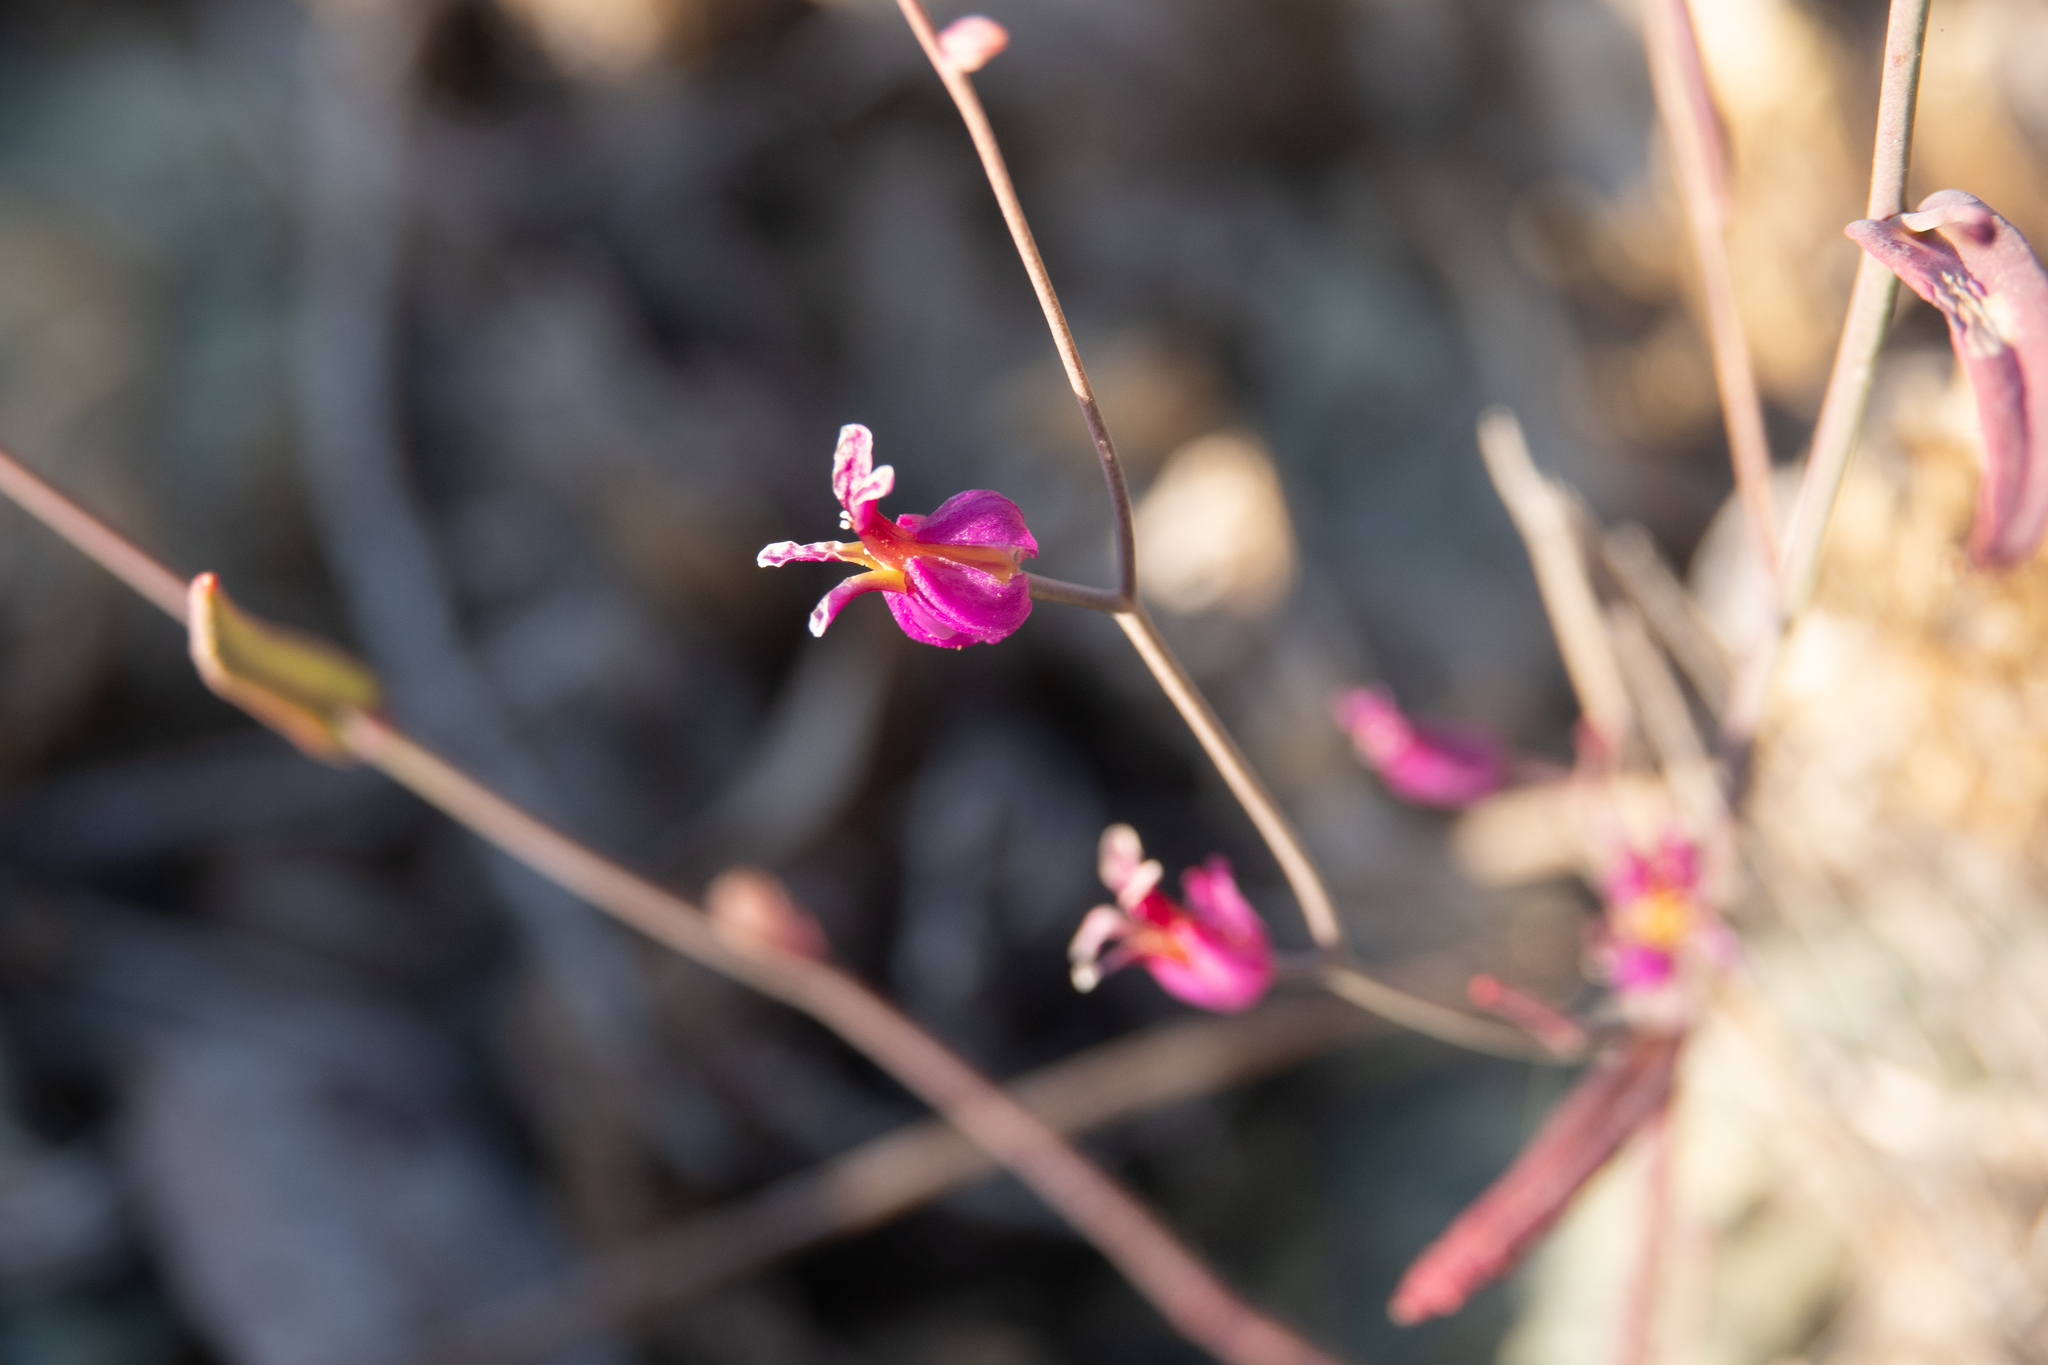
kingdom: Plantae
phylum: Tracheophyta
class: Magnoliopsida
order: Brassicales
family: Brassicaceae
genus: Streptanthus
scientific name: Streptanthus glandulosus
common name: Jewel-flower
